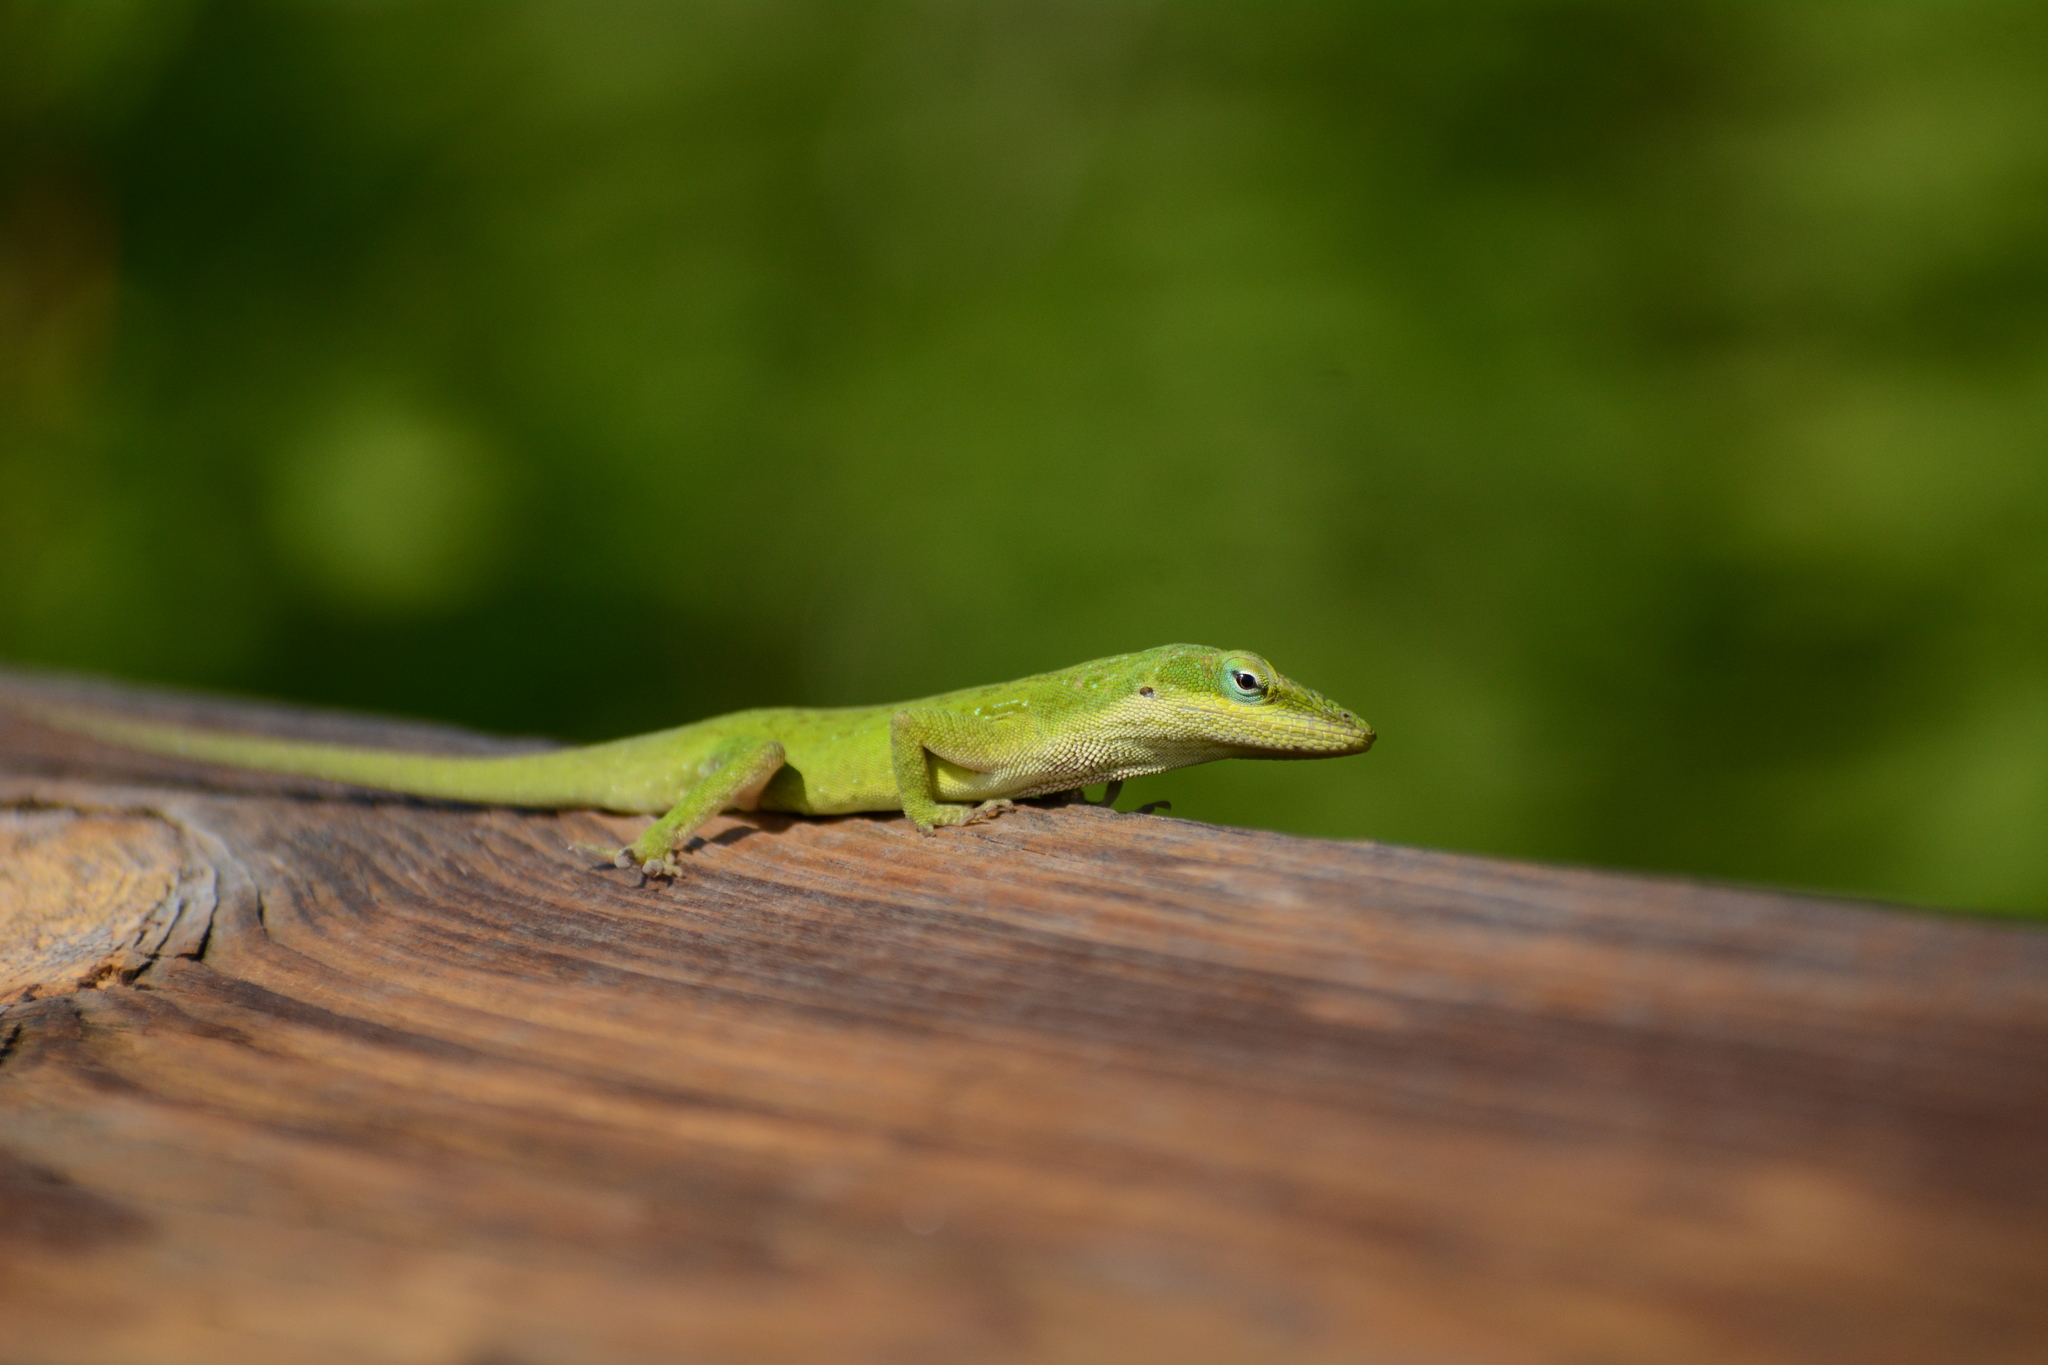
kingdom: Animalia
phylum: Chordata
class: Squamata
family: Dactyloidae
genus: Anolis
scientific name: Anolis carolinensis
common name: Green anole
